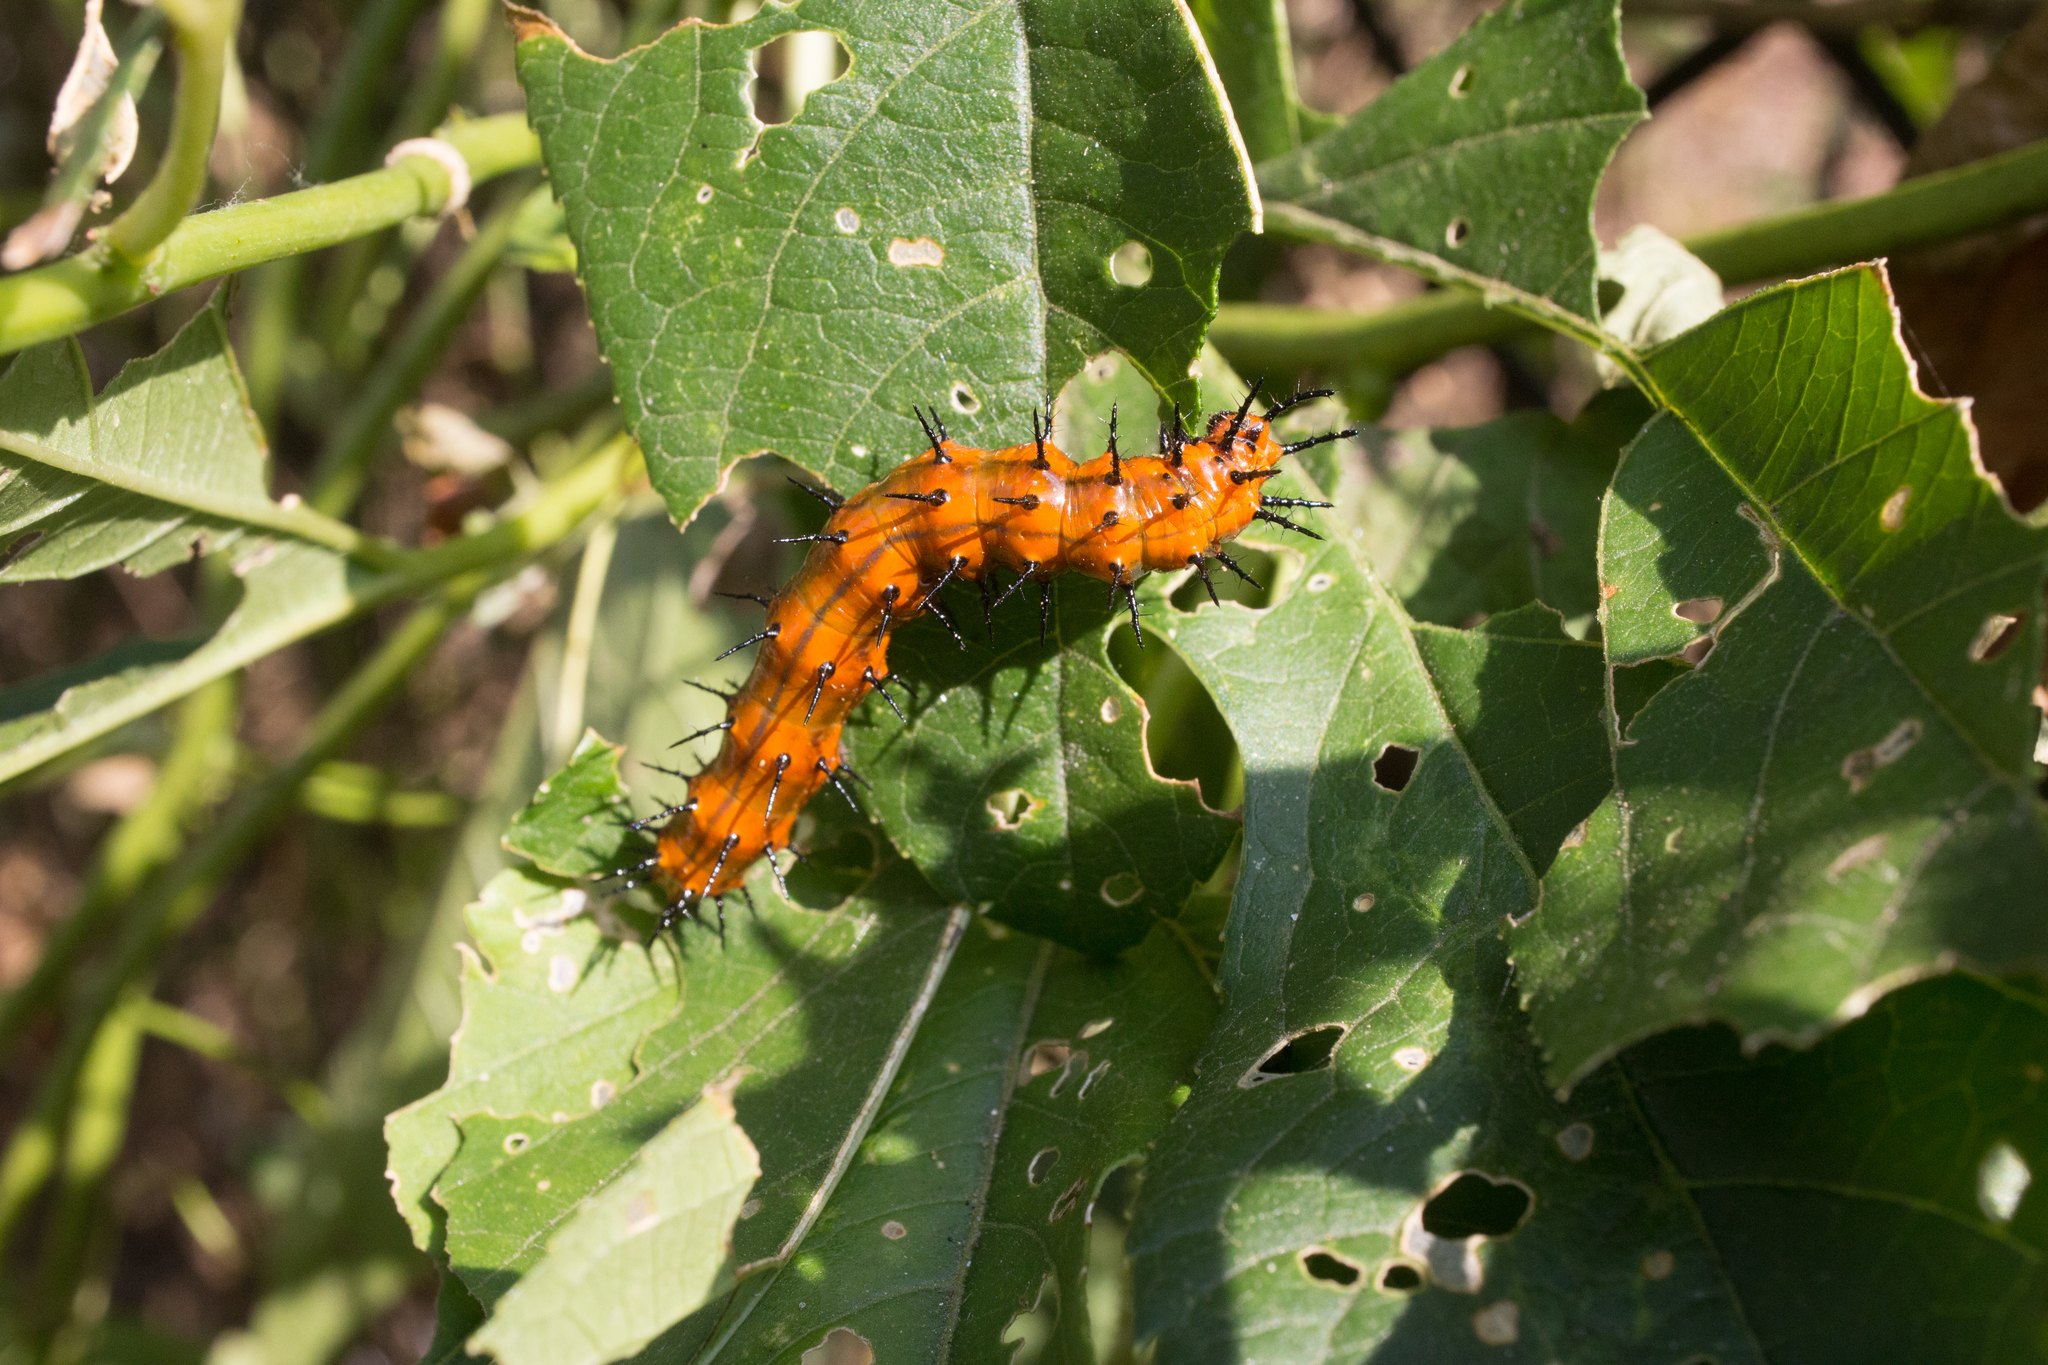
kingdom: Animalia
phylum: Arthropoda
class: Insecta
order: Lepidoptera
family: Nymphalidae
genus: Dione
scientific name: Dione vanillae
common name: Gulf fritillary
